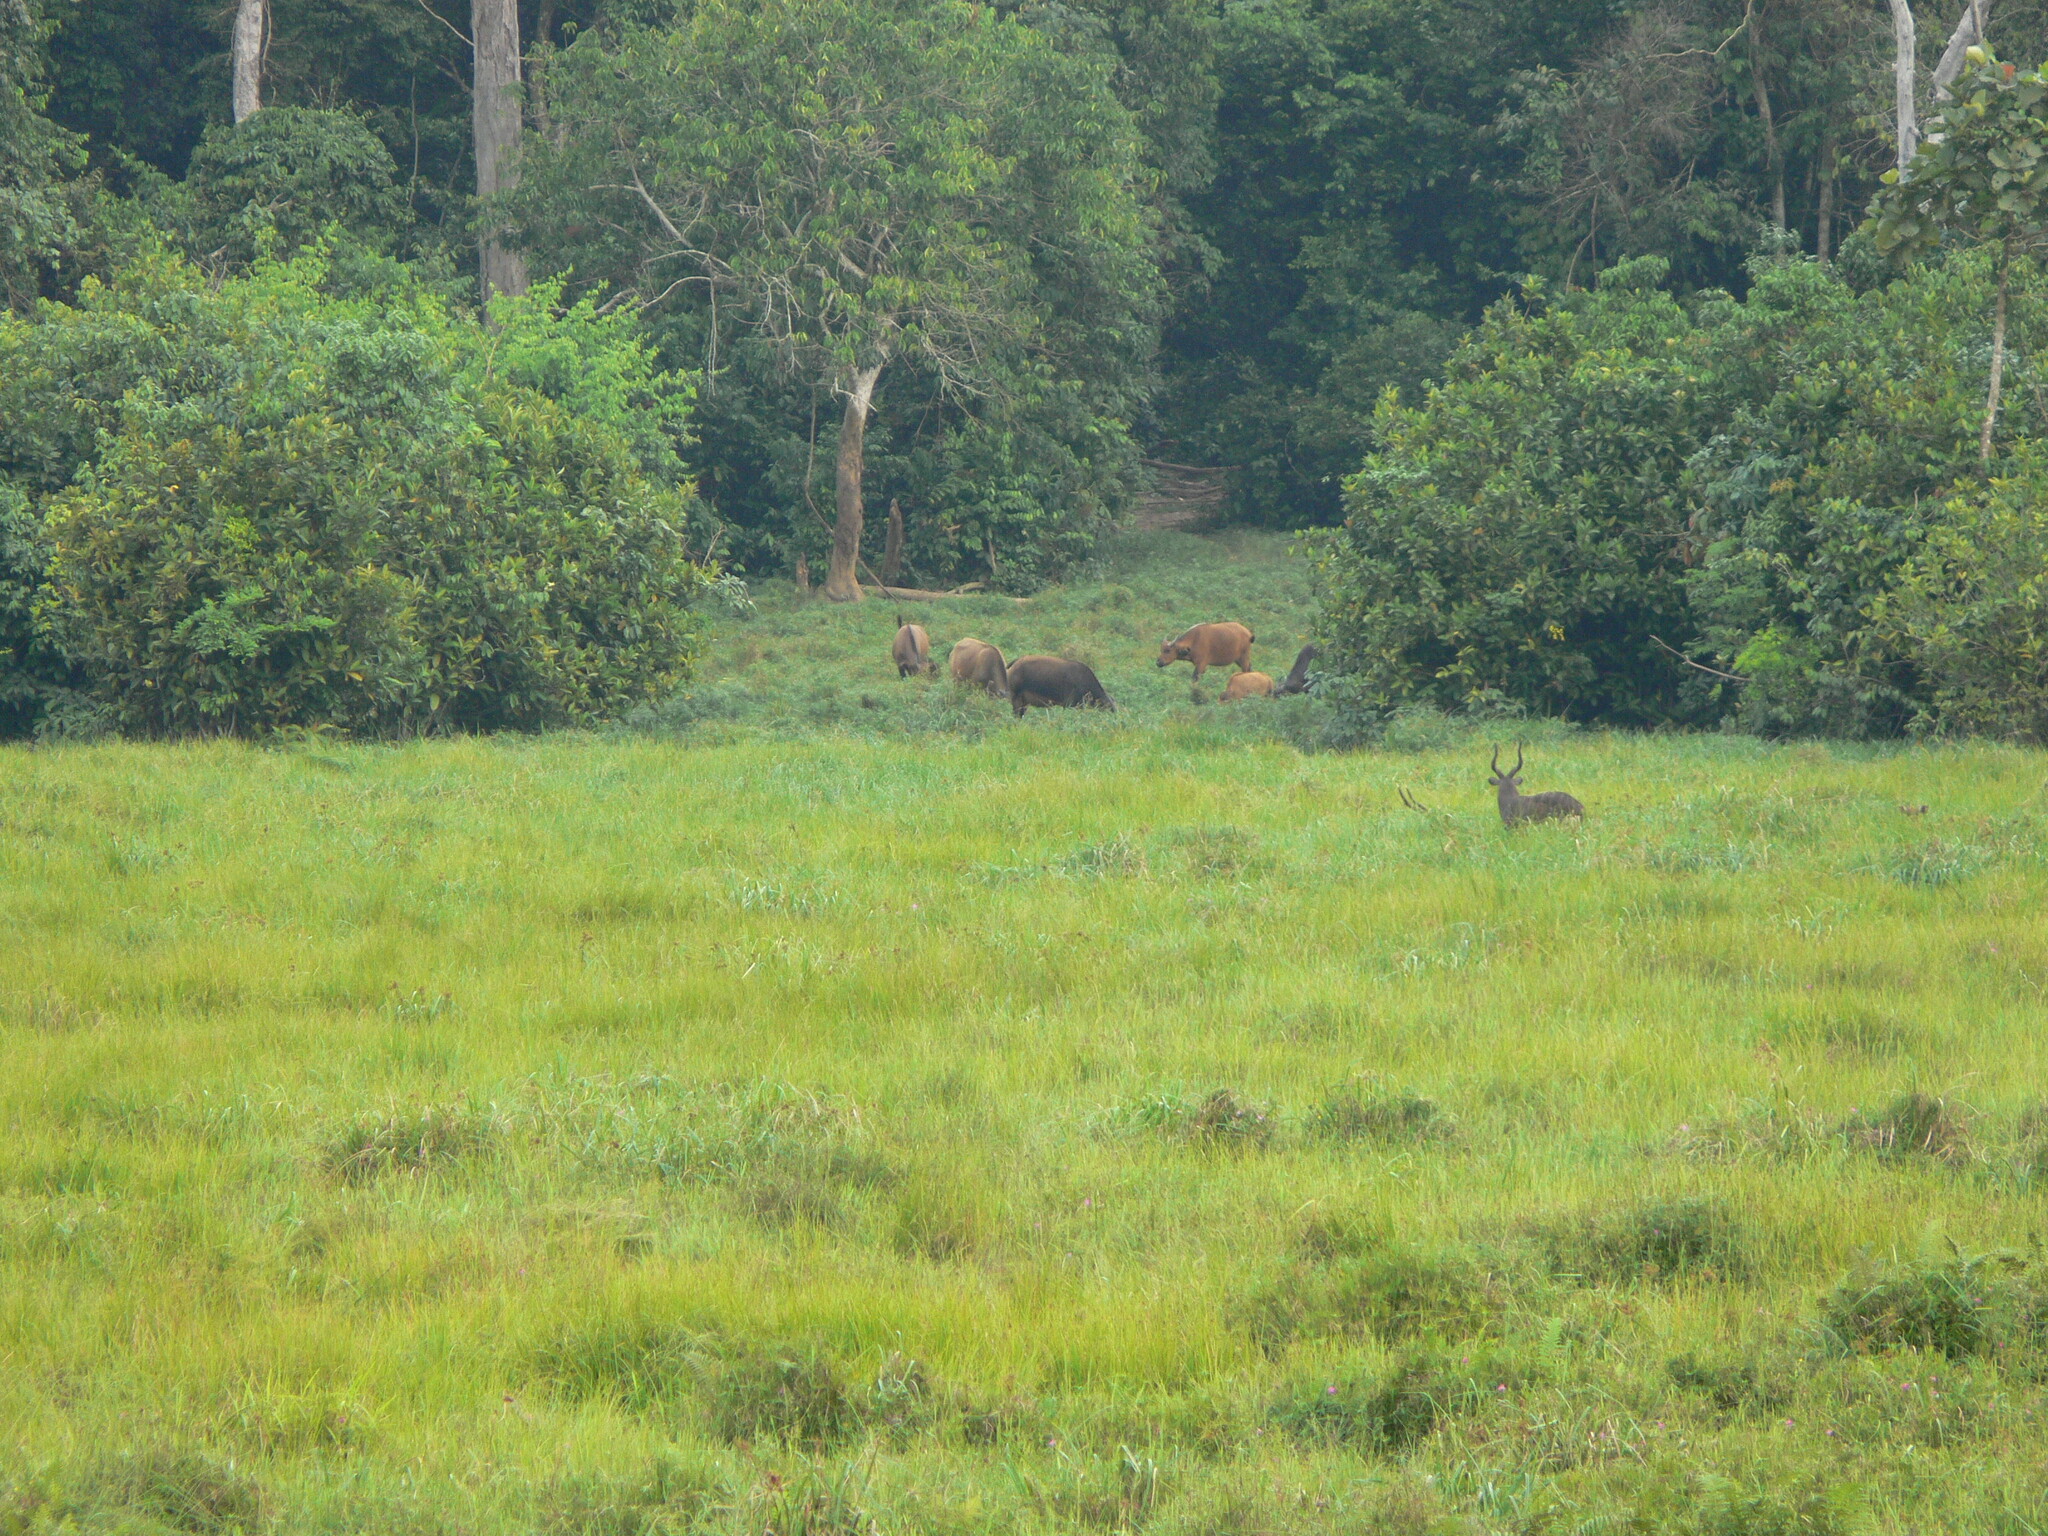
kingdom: Animalia
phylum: Chordata
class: Mammalia
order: Artiodactyla
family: Bovidae
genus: Syncerus
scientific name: Syncerus caffer
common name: African buffalo
